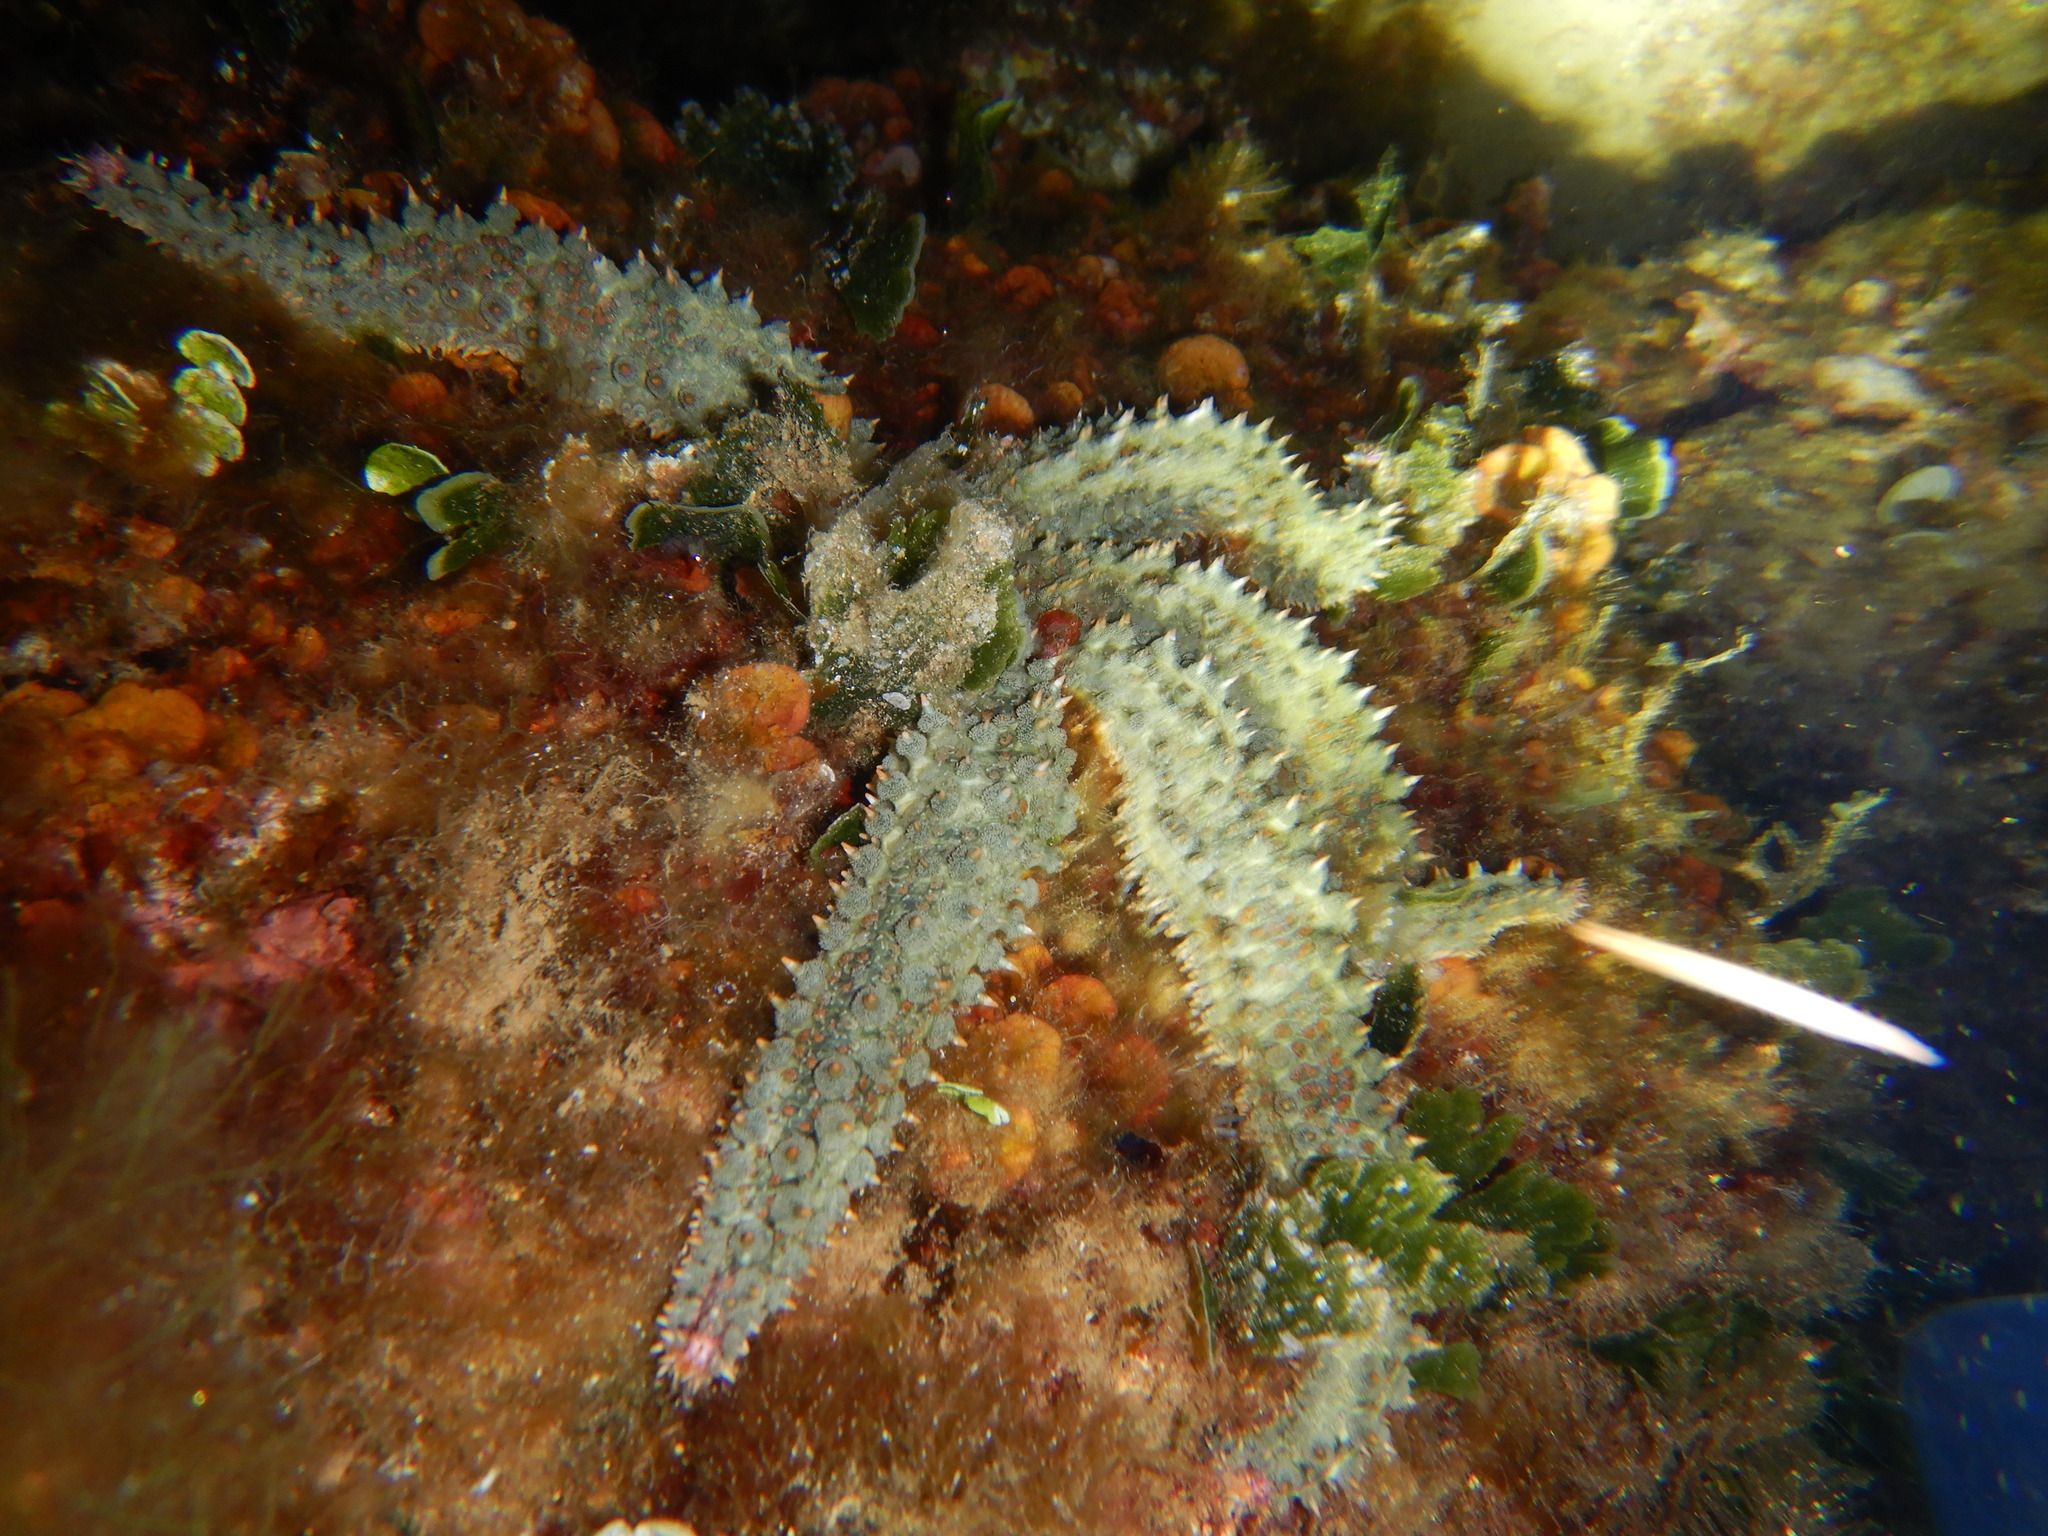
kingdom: Animalia
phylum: Echinodermata
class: Asteroidea
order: Forcipulatida
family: Asteriidae
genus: Marthasterias
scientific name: Marthasterias glacialis
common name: Spiny starfish
